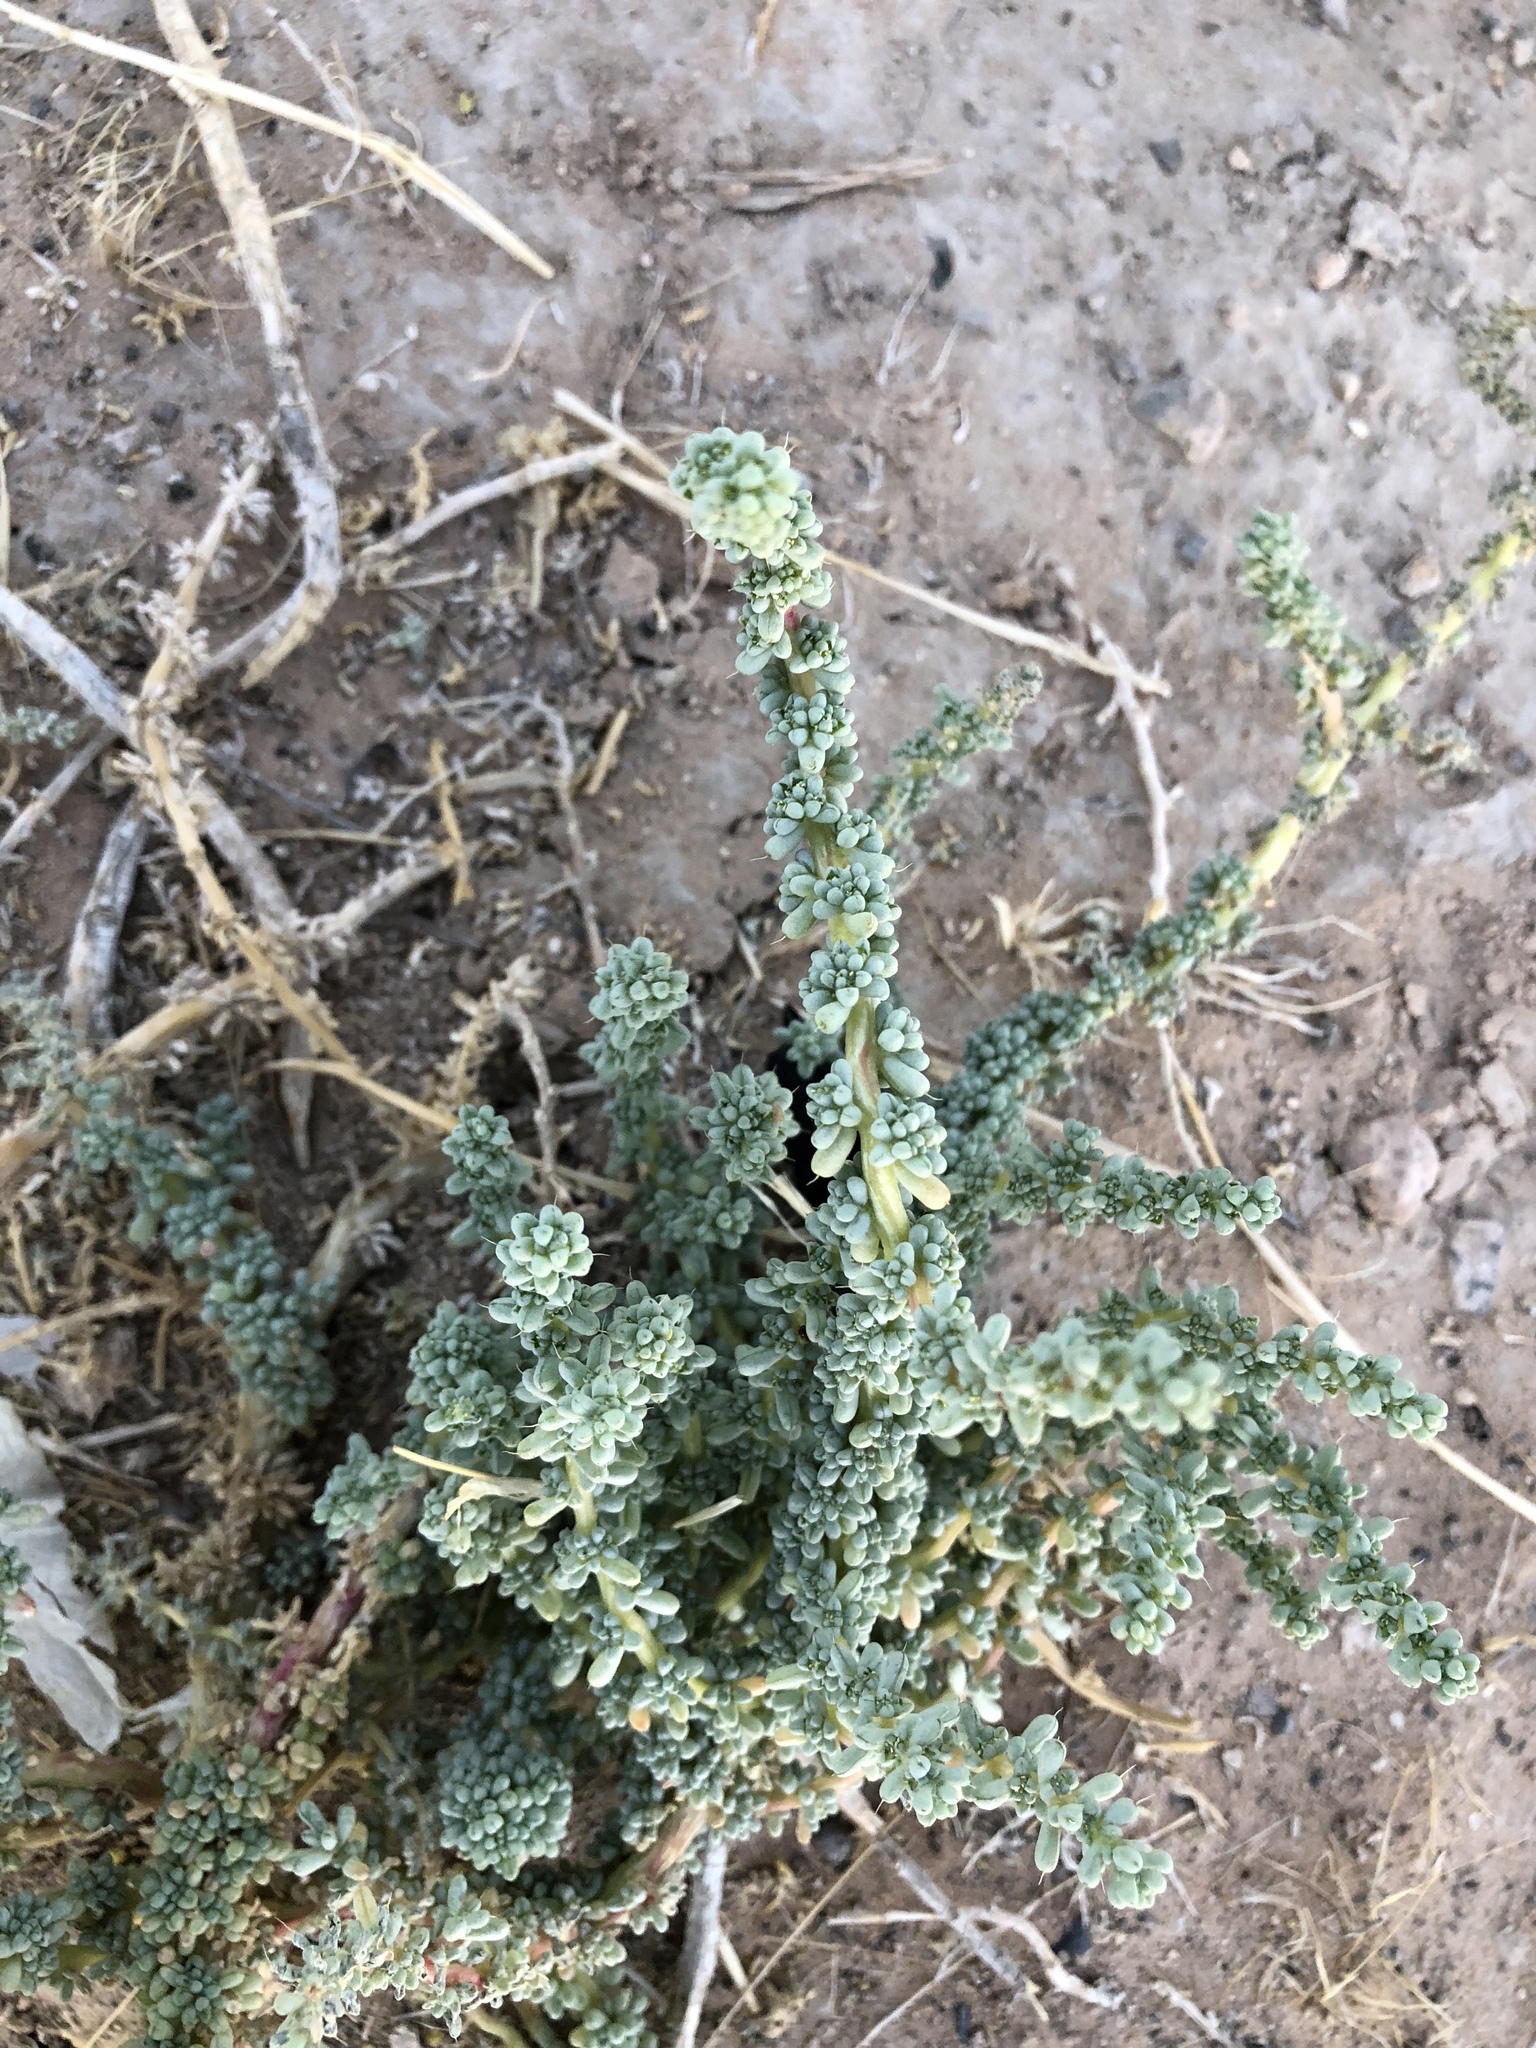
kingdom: Plantae
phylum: Tracheophyta
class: Magnoliopsida
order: Caryophyllales
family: Amaranthaceae
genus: Halogeton
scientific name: Halogeton glomeratus
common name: Saltlover
